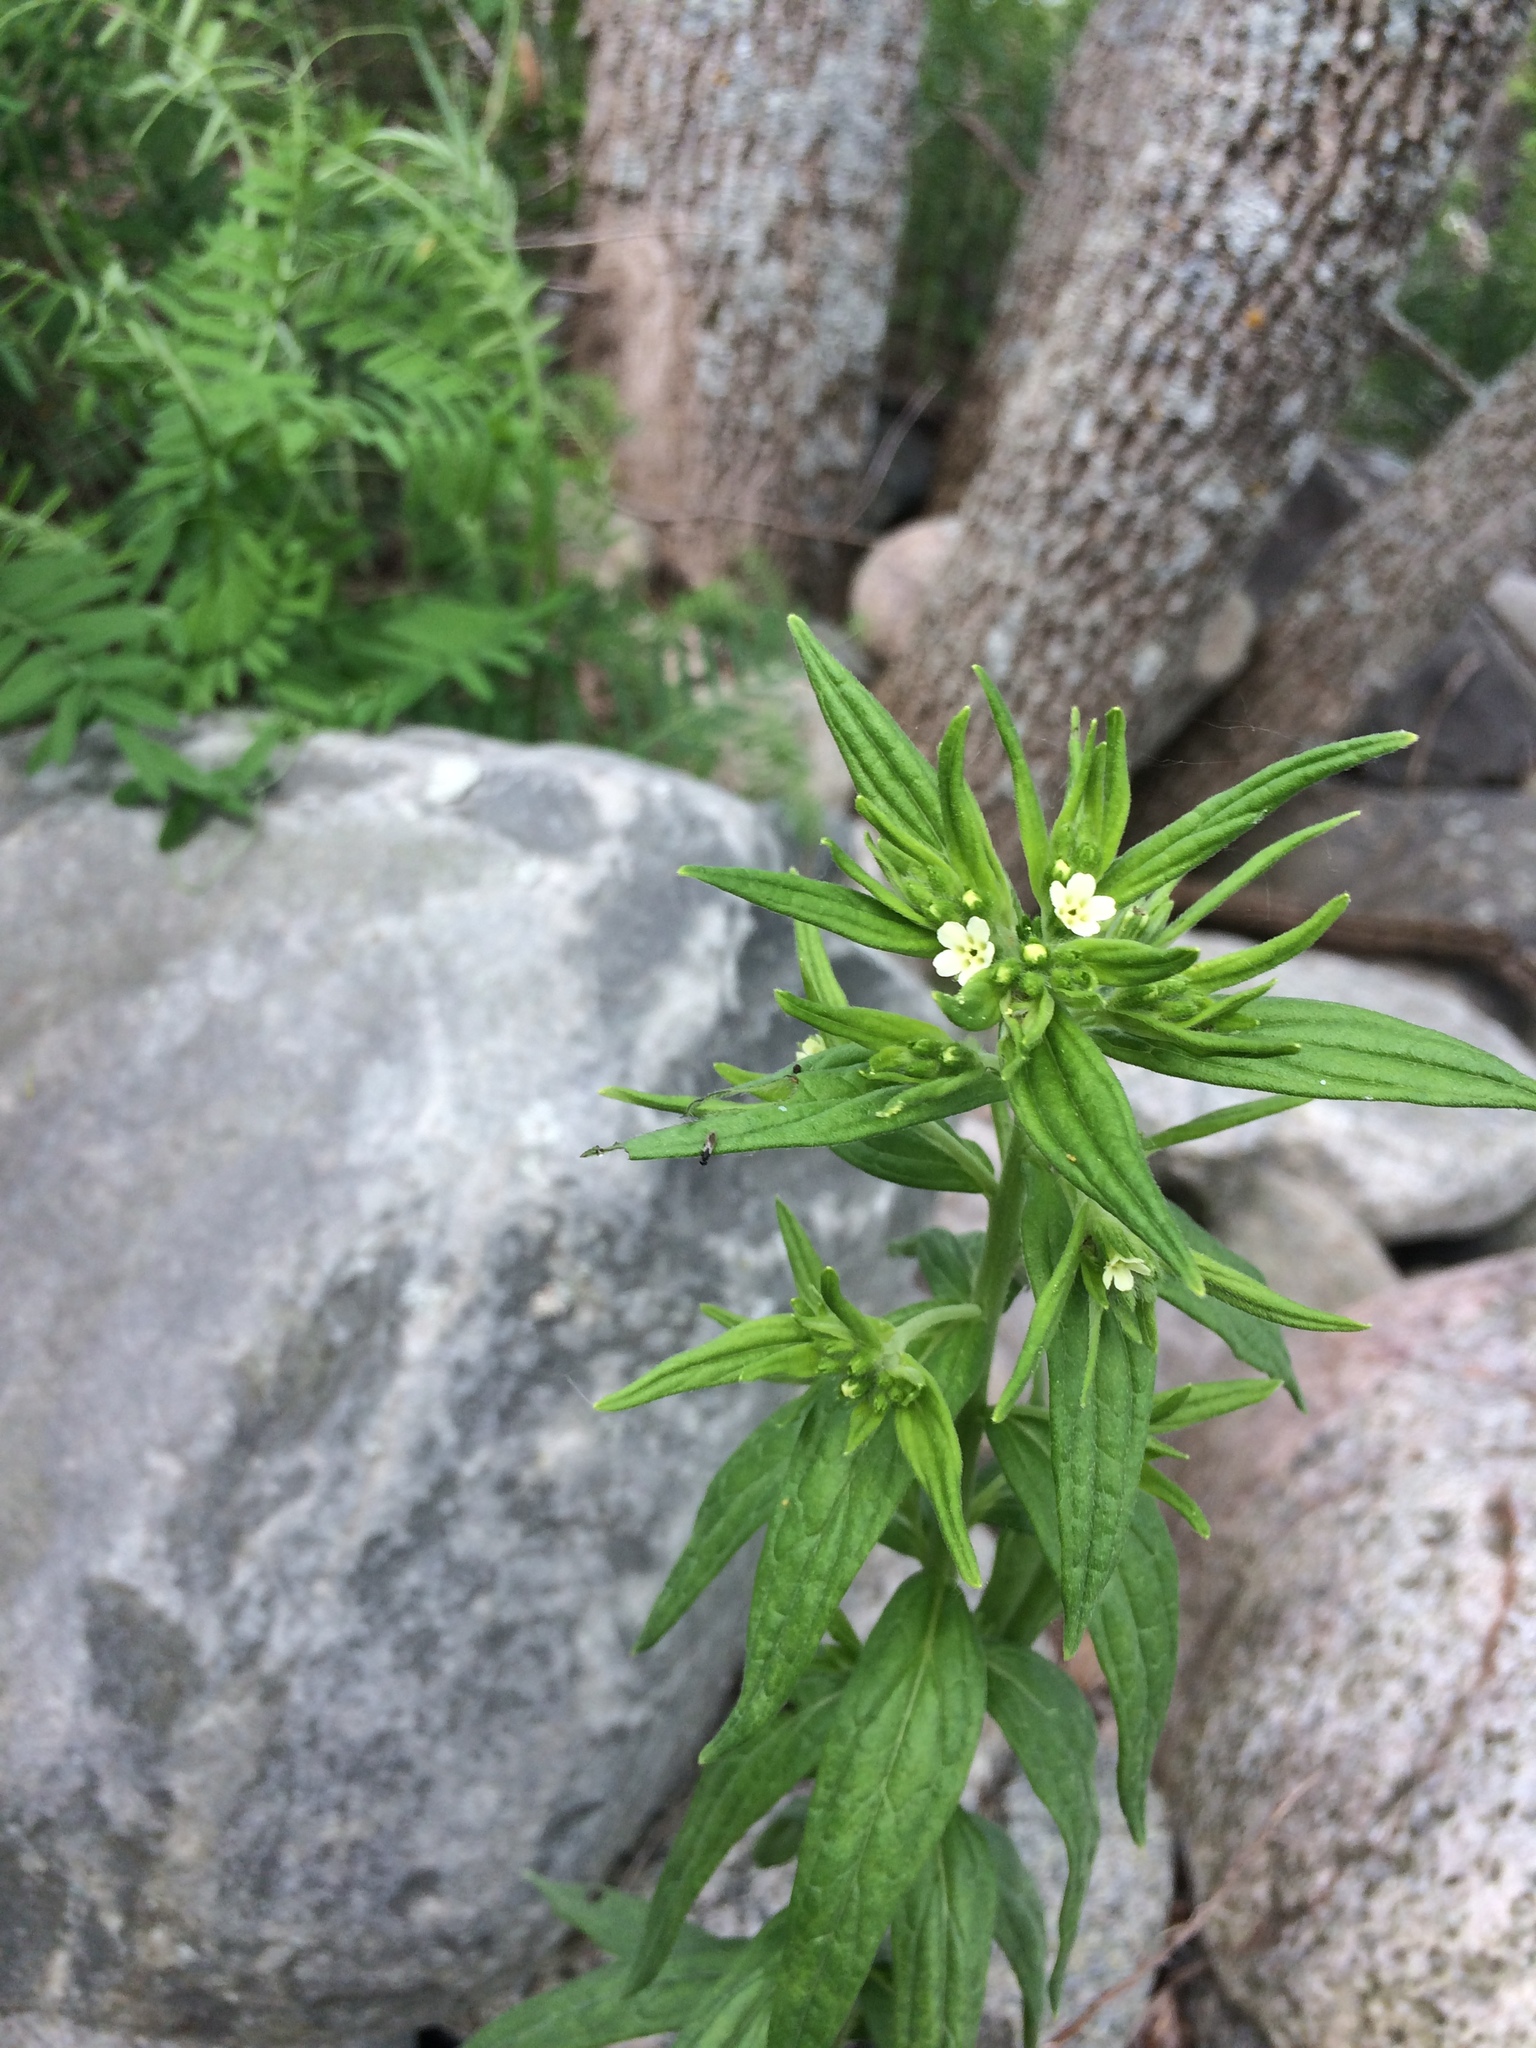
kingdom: Plantae
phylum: Tracheophyta
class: Magnoliopsida
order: Boraginales
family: Boraginaceae
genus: Lithospermum
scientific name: Lithospermum officinale
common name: Common gromwell
